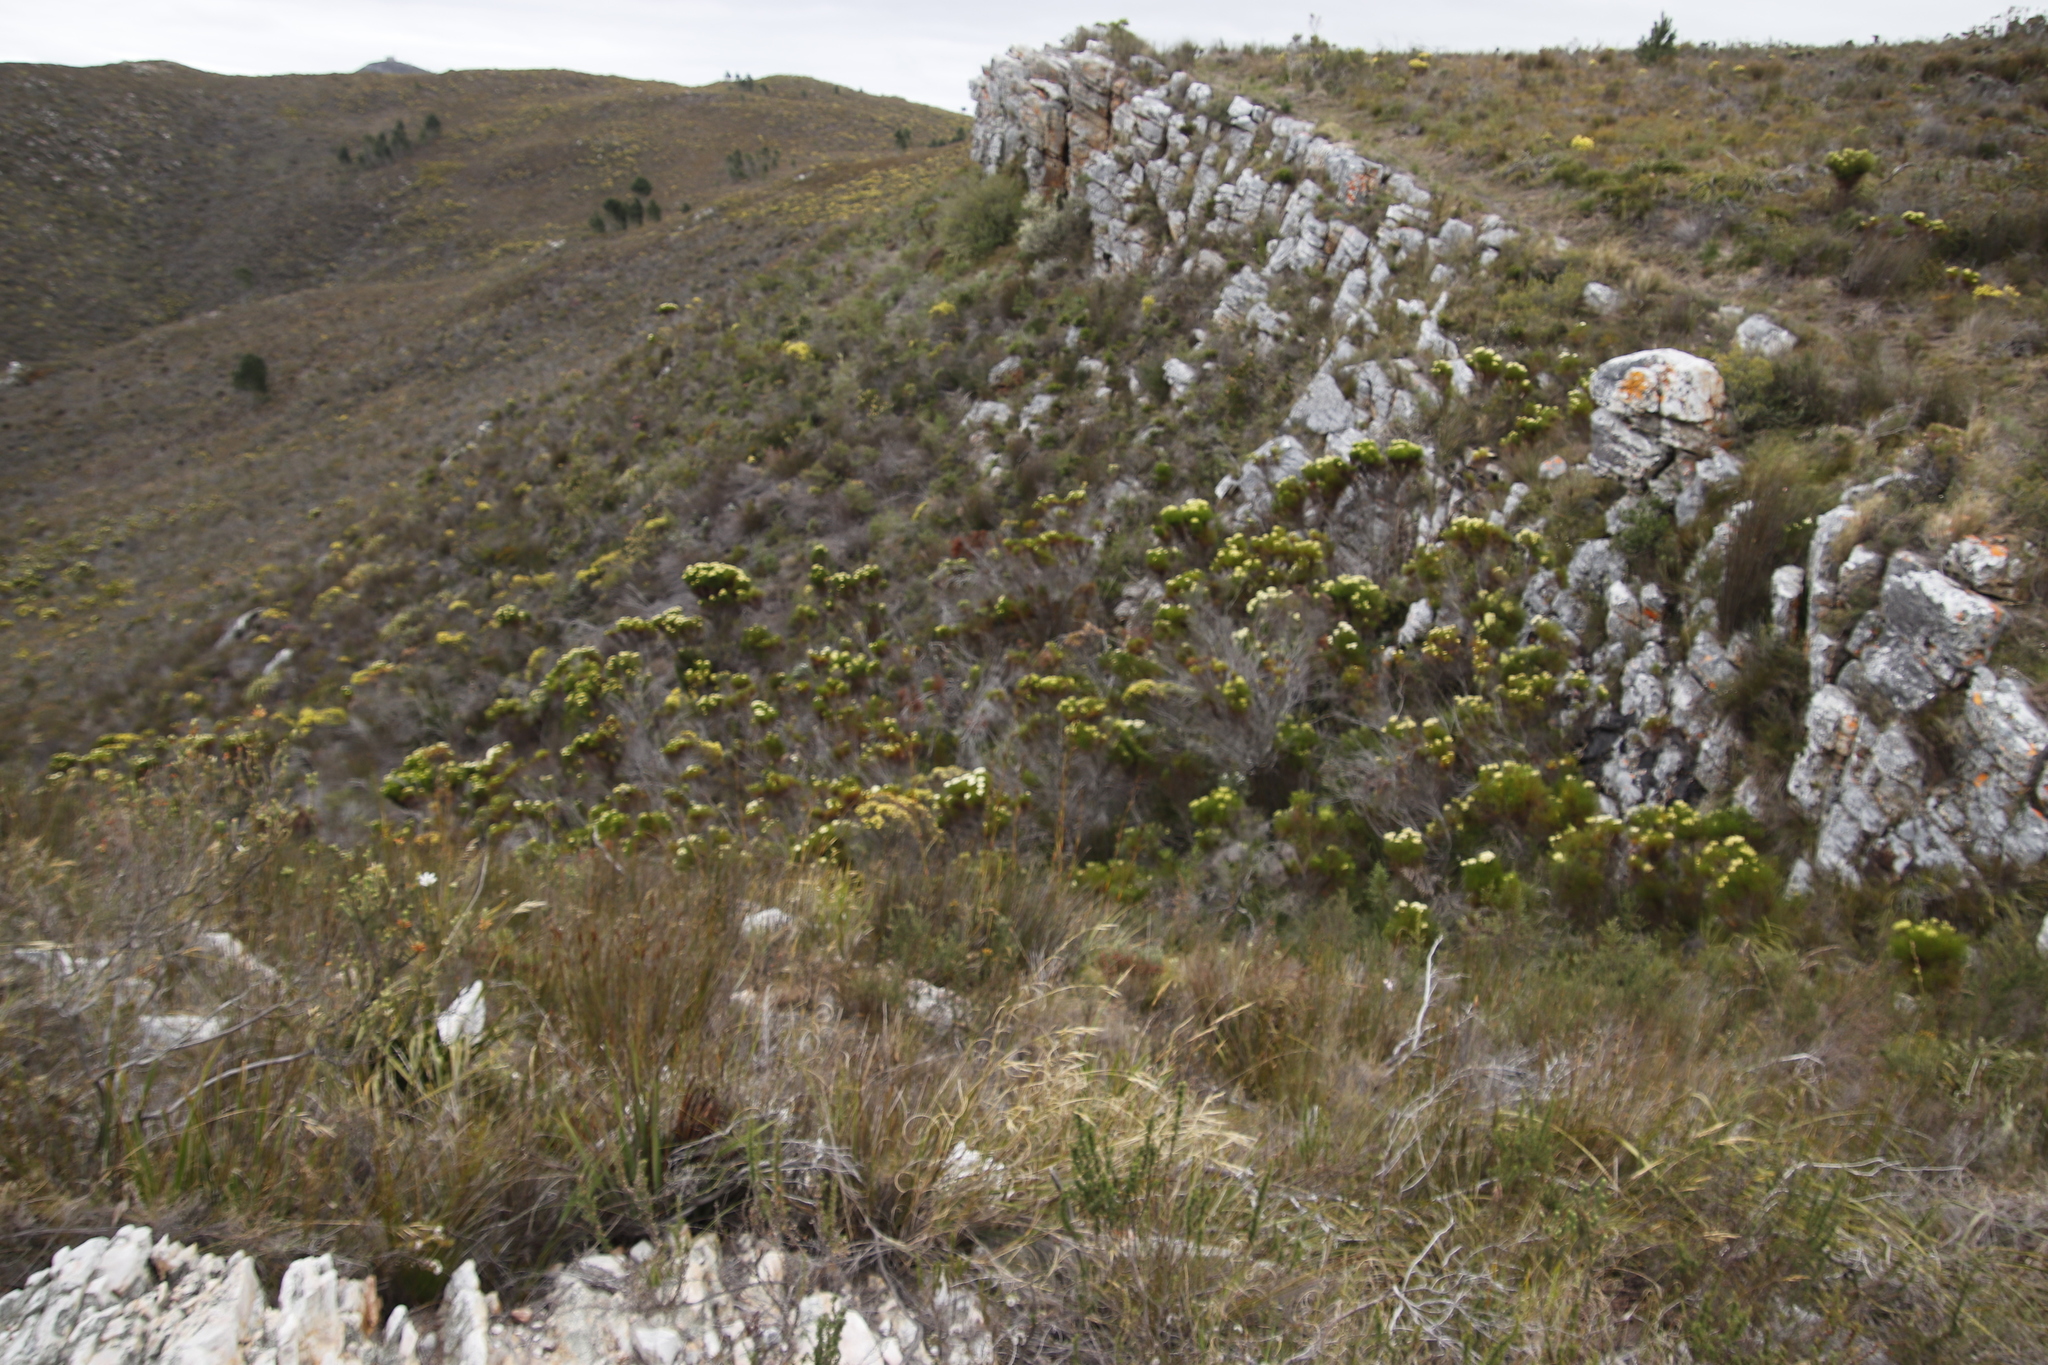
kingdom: Plantae
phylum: Tracheophyta
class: Magnoliopsida
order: Bruniales
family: Bruniaceae
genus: Berzelia
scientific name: Berzelia lanuginosa
